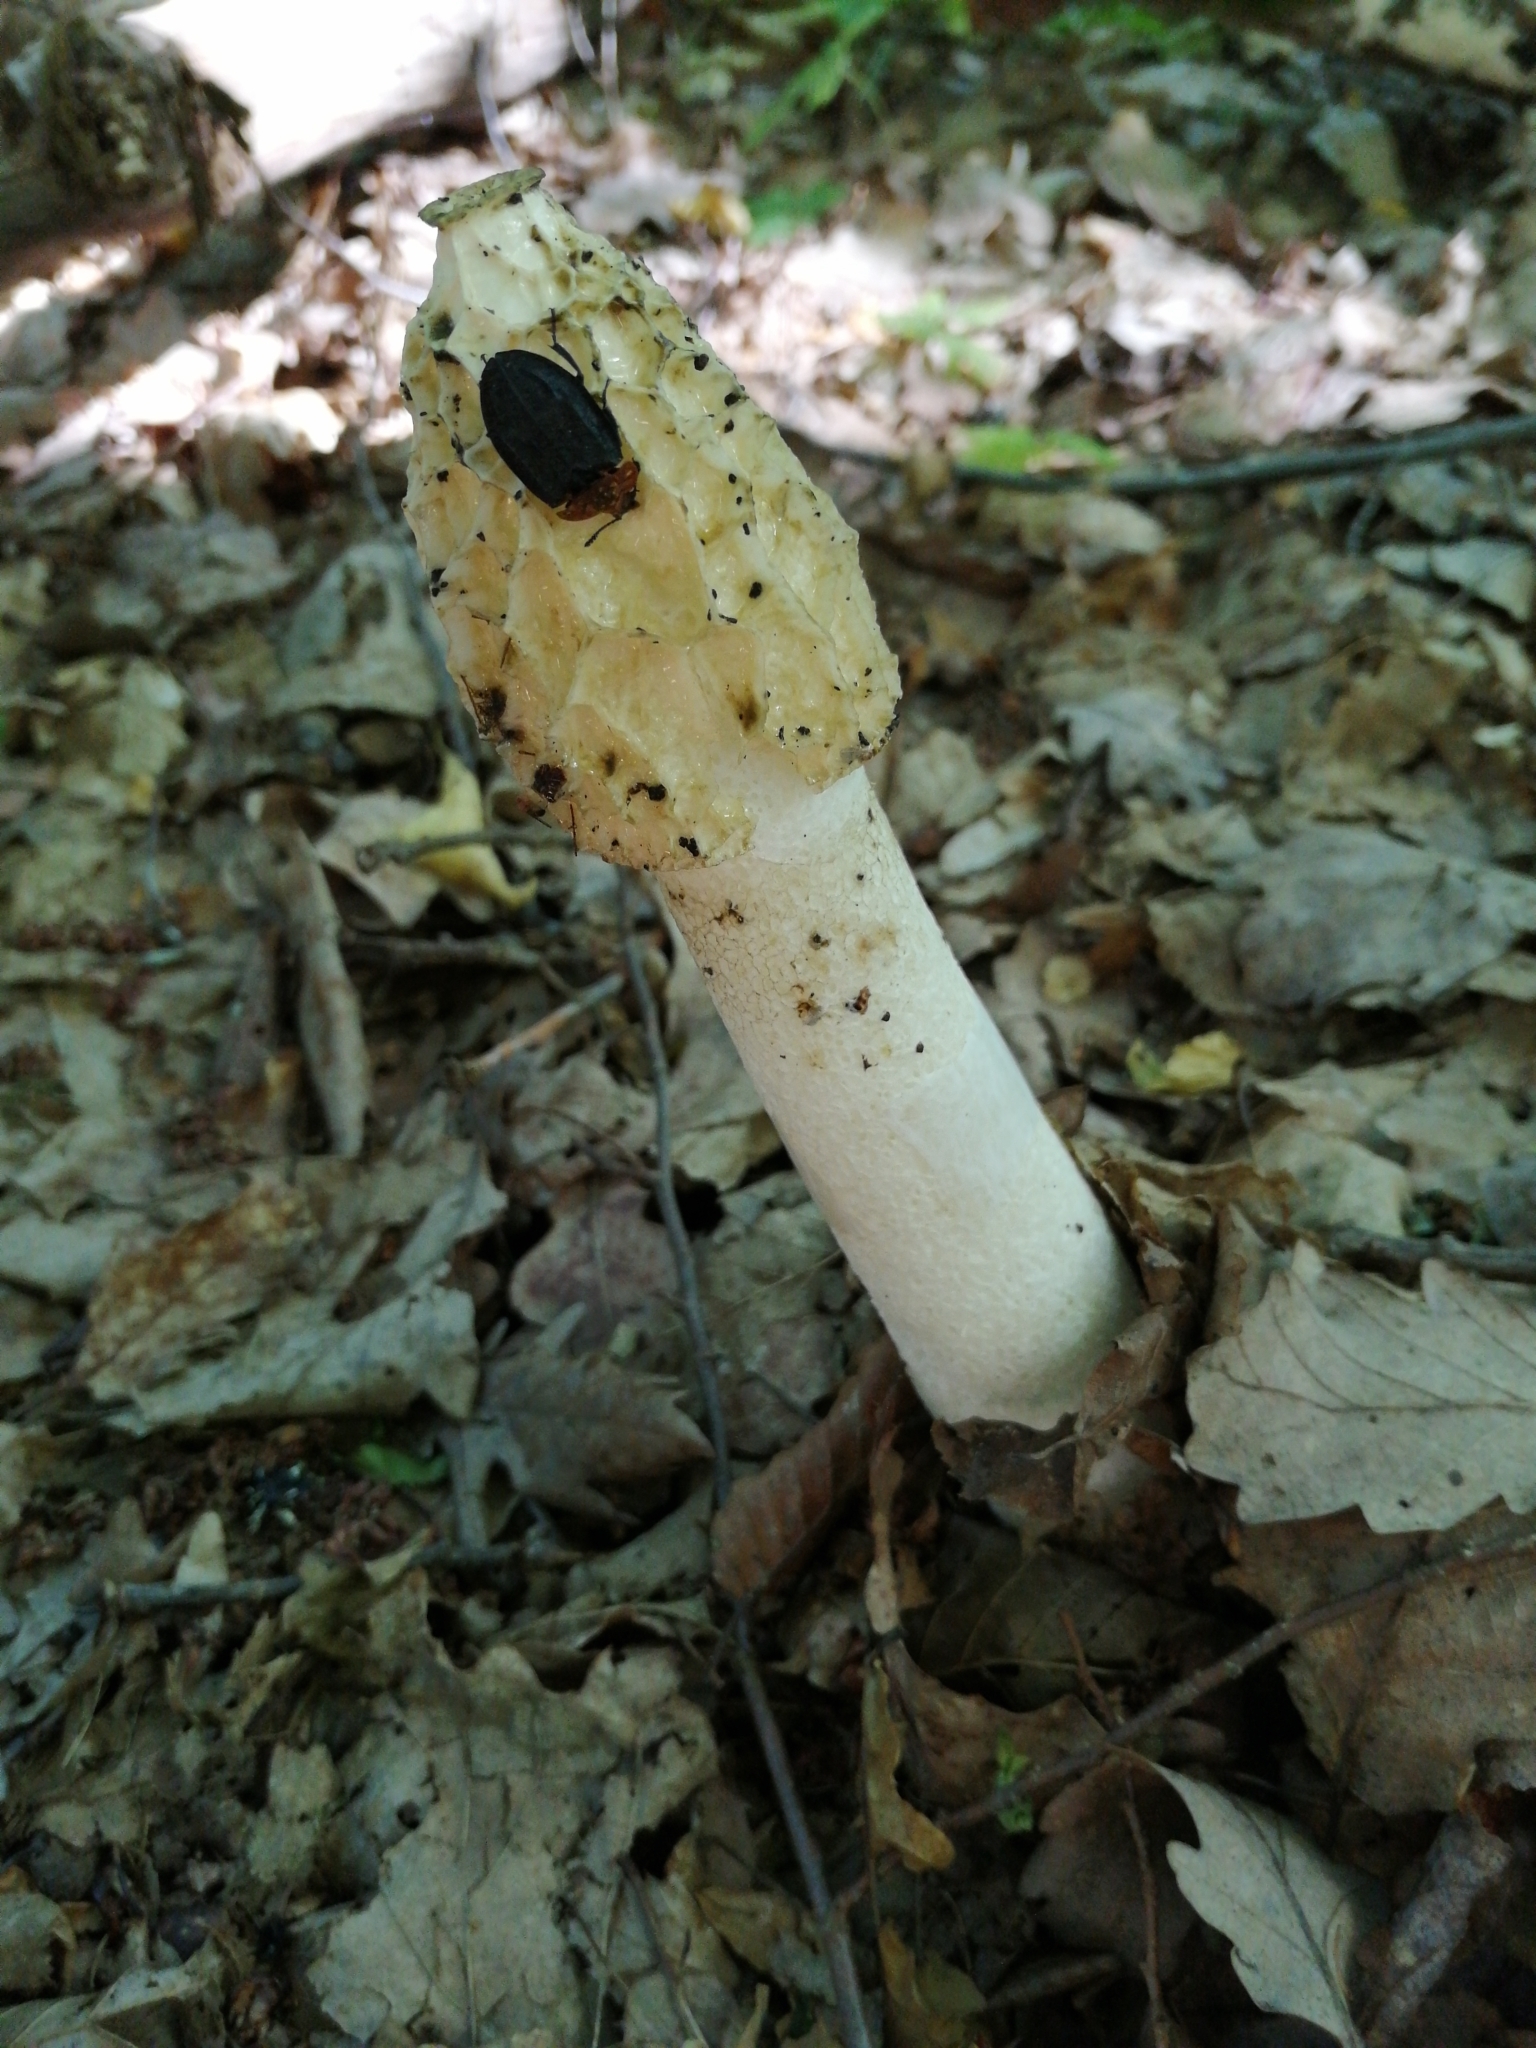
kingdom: Fungi
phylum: Basidiomycota
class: Agaricomycetes
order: Phallales
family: Phallaceae
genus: Phallus
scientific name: Phallus impudicus
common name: Common stinkhorn
